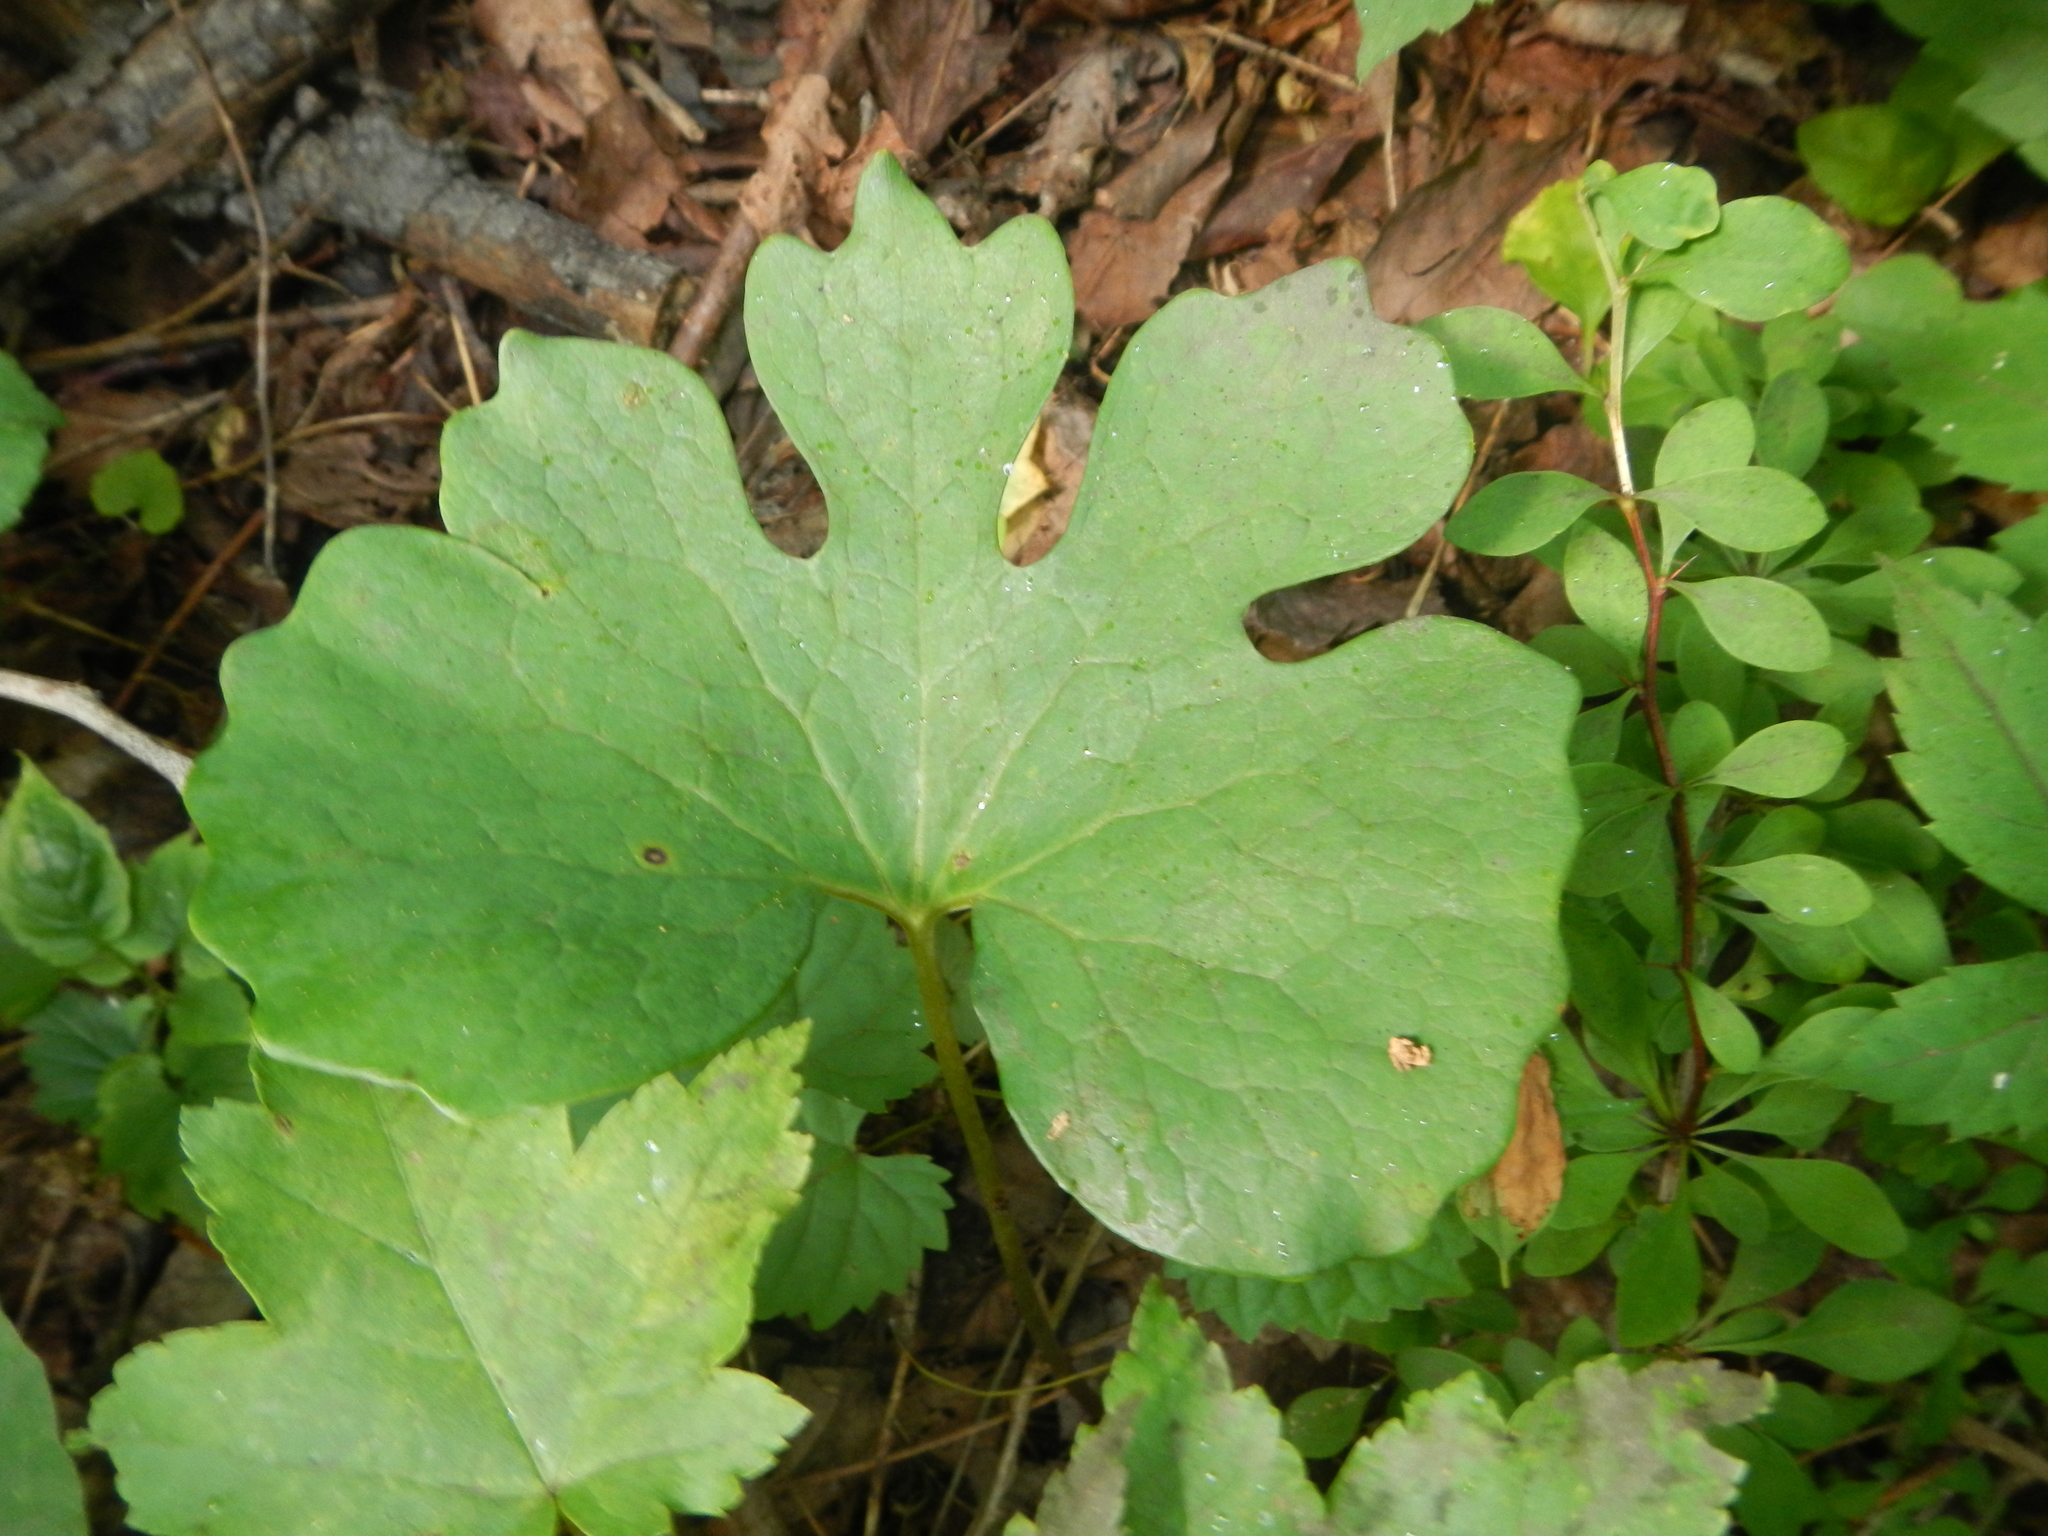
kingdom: Plantae
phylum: Tracheophyta
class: Magnoliopsida
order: Ranunculales
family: Papaveraceae
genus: Sanguinaria
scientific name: Sanguinaria canadensis
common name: Bloodroot
